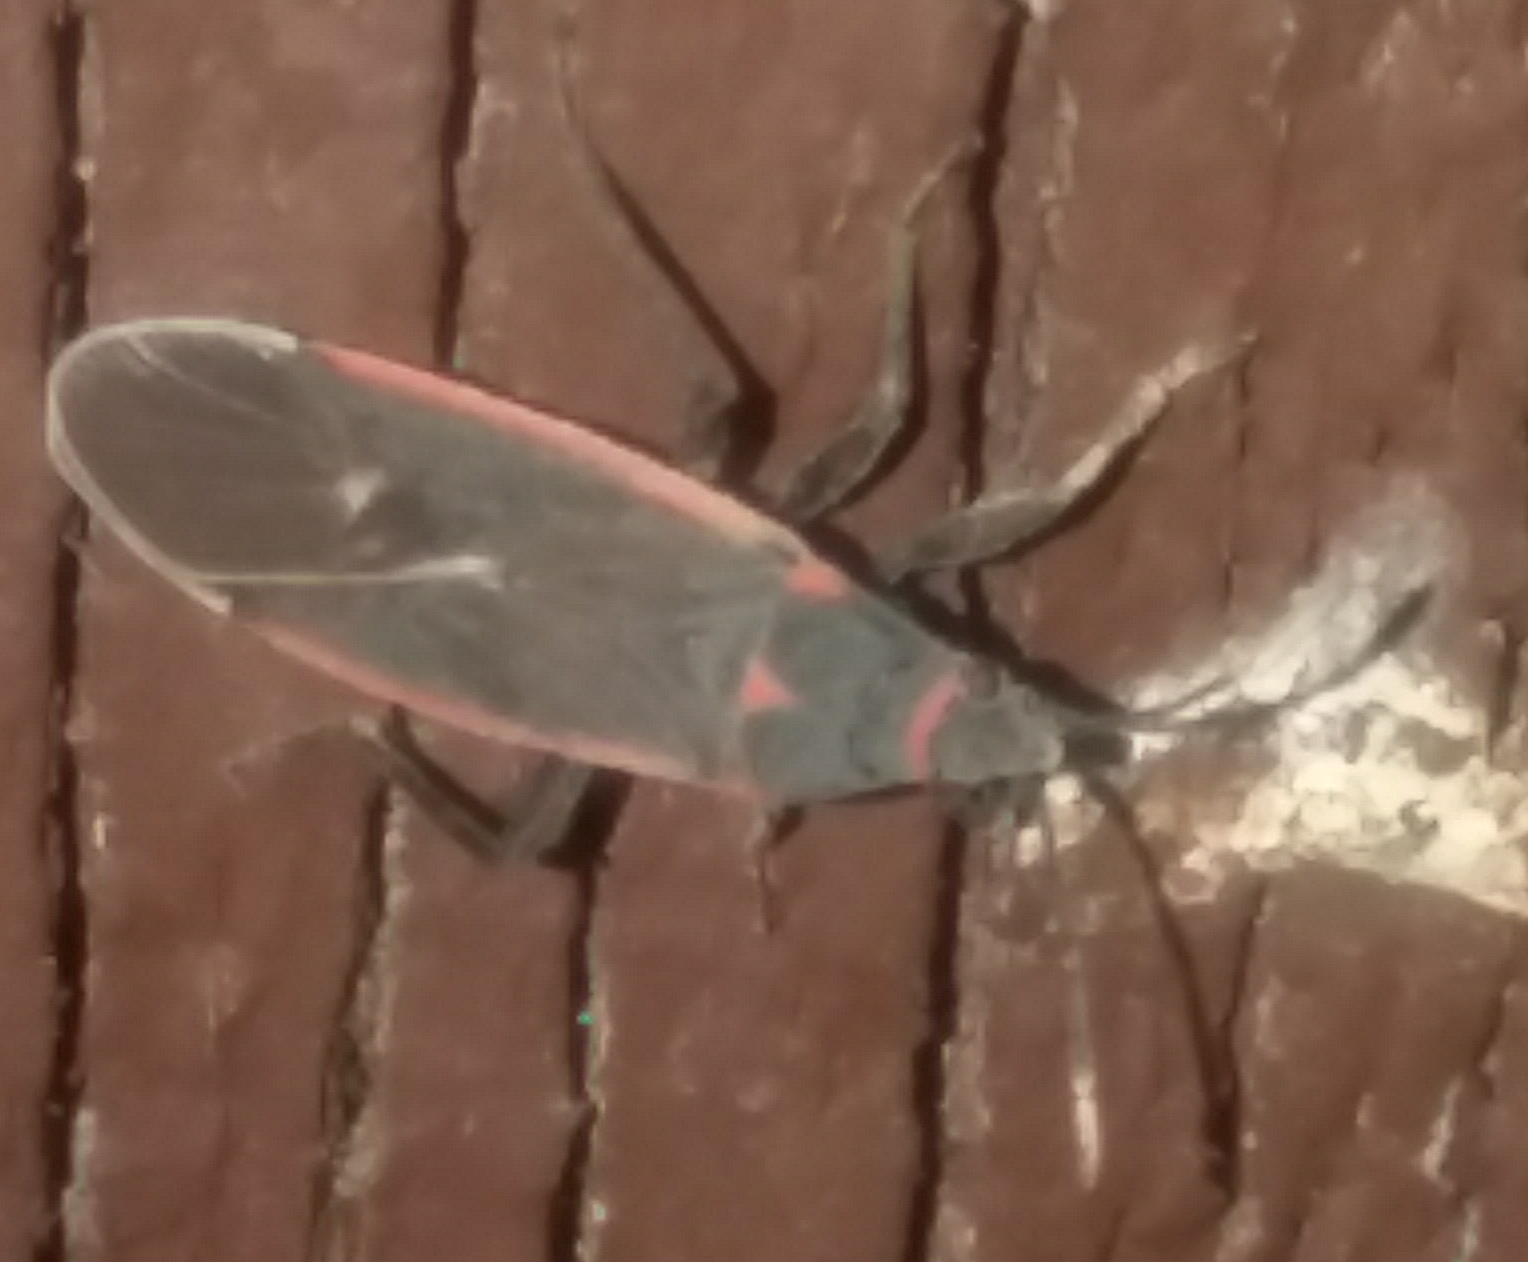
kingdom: Animalia
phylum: Arthropoda
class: Insecta
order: Hemiptera
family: Lygaeidae
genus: Melacoryphus
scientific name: Melacoryphus lateralis
